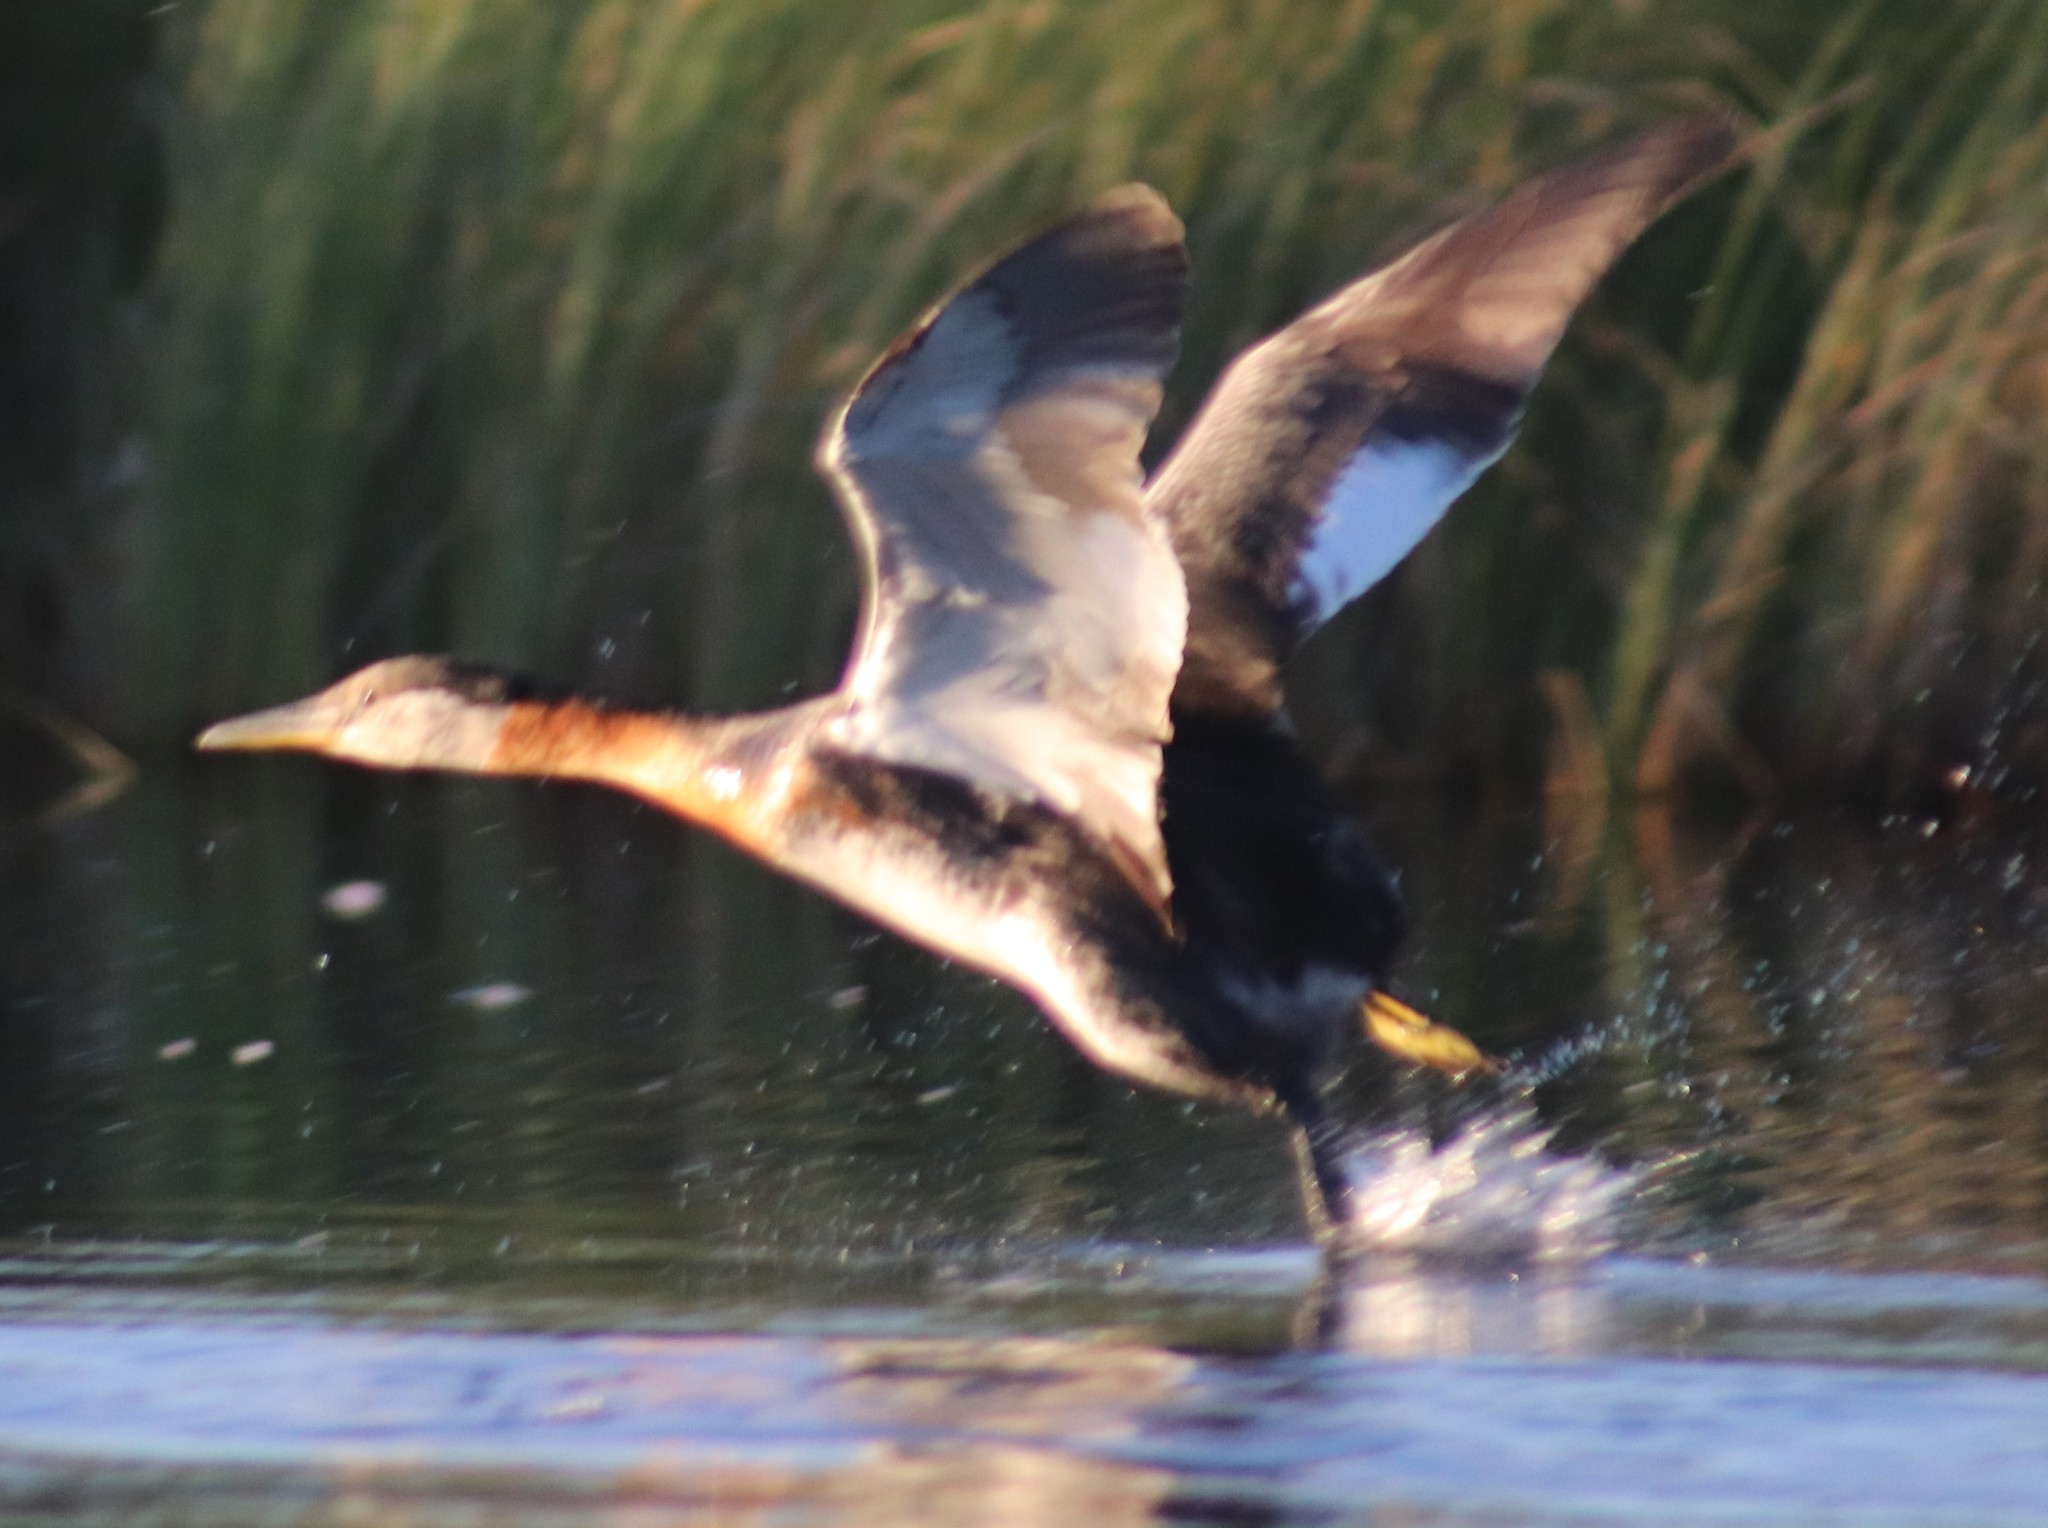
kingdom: Animalia
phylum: Chordata
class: Aves
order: Podicipediformes
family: Podicipedidae
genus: Podiceps
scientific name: Podiceps grisegena
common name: Red-necked grebe
